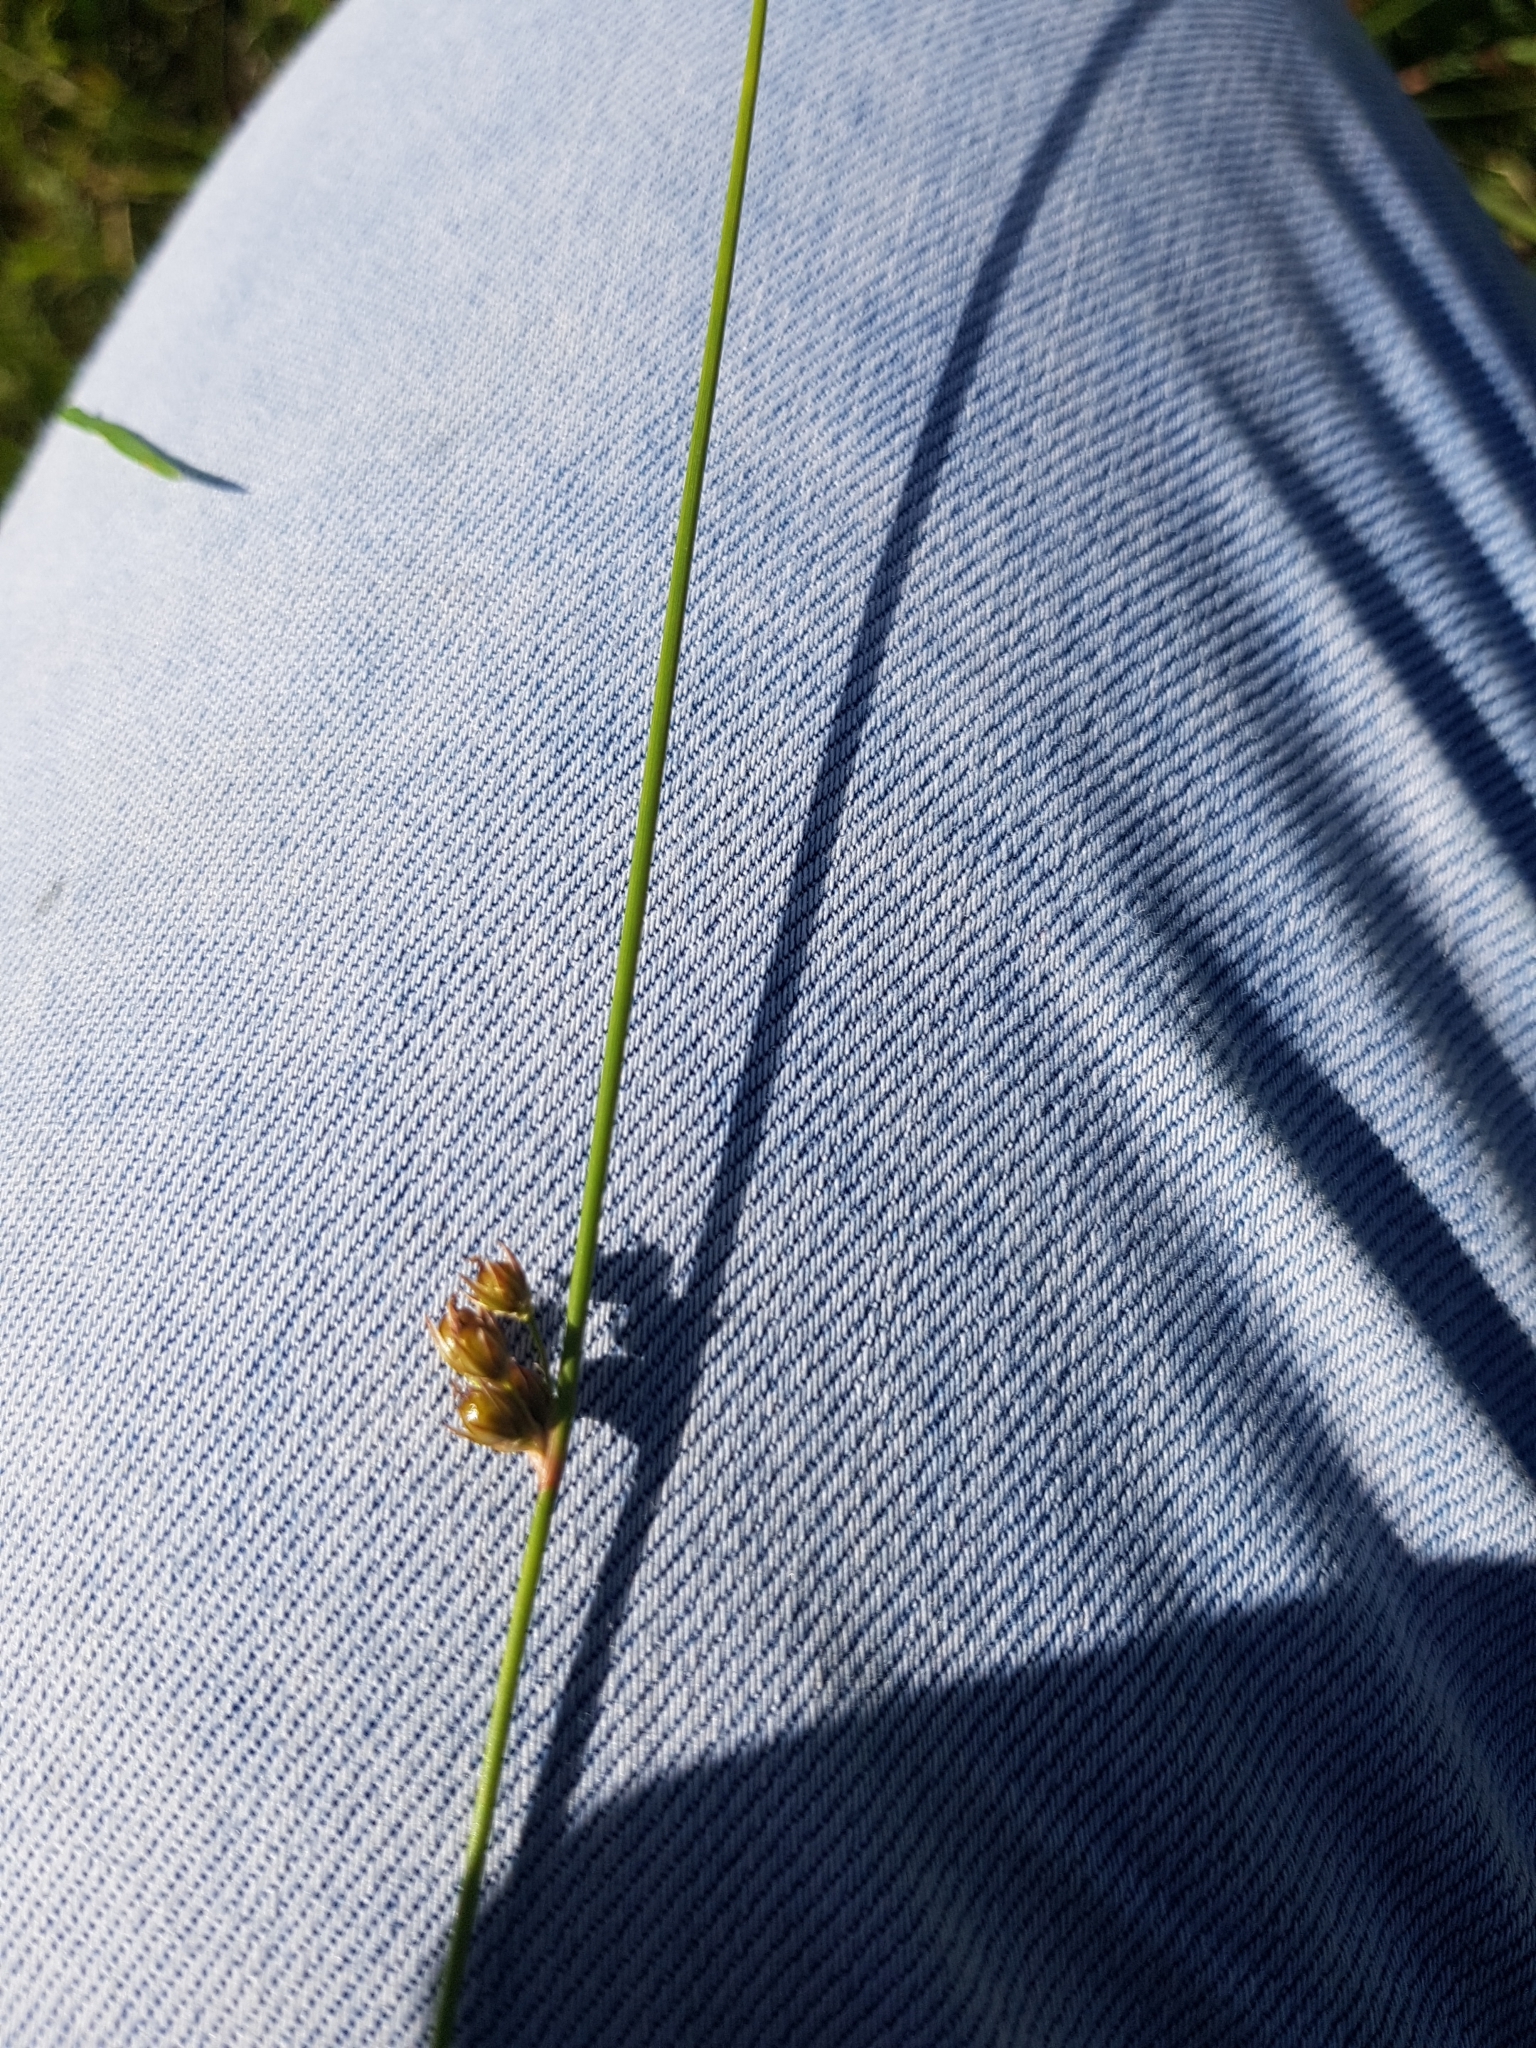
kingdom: Plantae
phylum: Tracheophyta
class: Liliopsida
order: Poales
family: Juncaceae
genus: Juncus
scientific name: Juncus filiformis
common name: Thread rush
